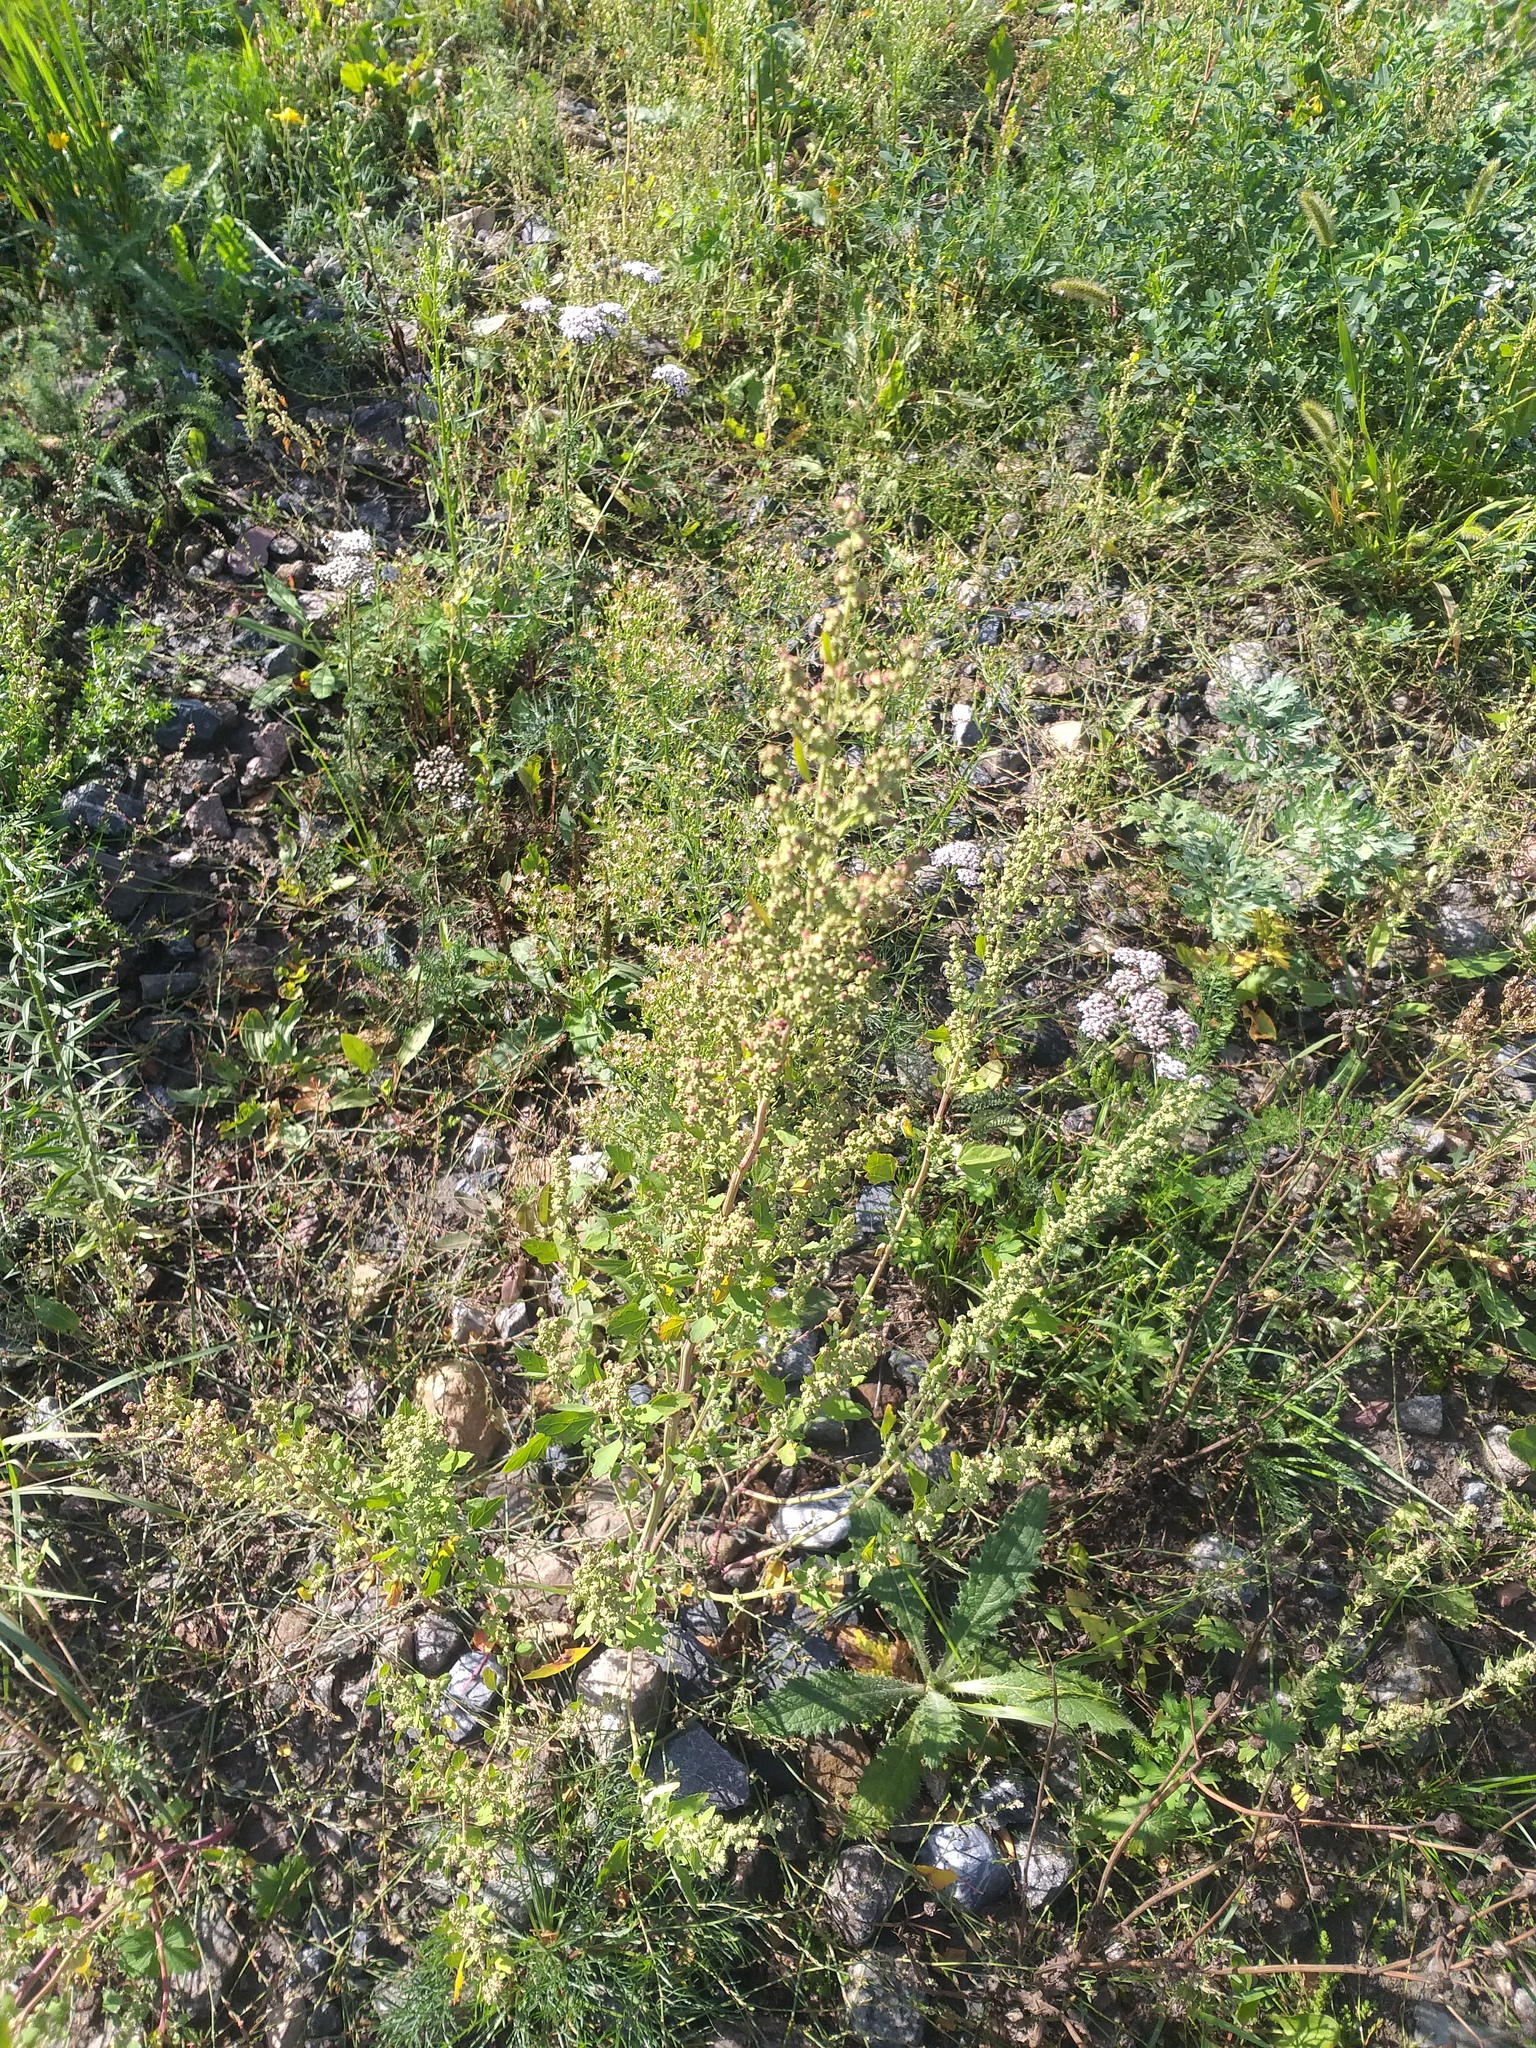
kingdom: Plantae
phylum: Tracheophyta
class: Magnoliopsida
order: Caryophyllales
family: Amaranthaceae
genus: Chenopodium
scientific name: Chenopodium album
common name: Fat-hen
